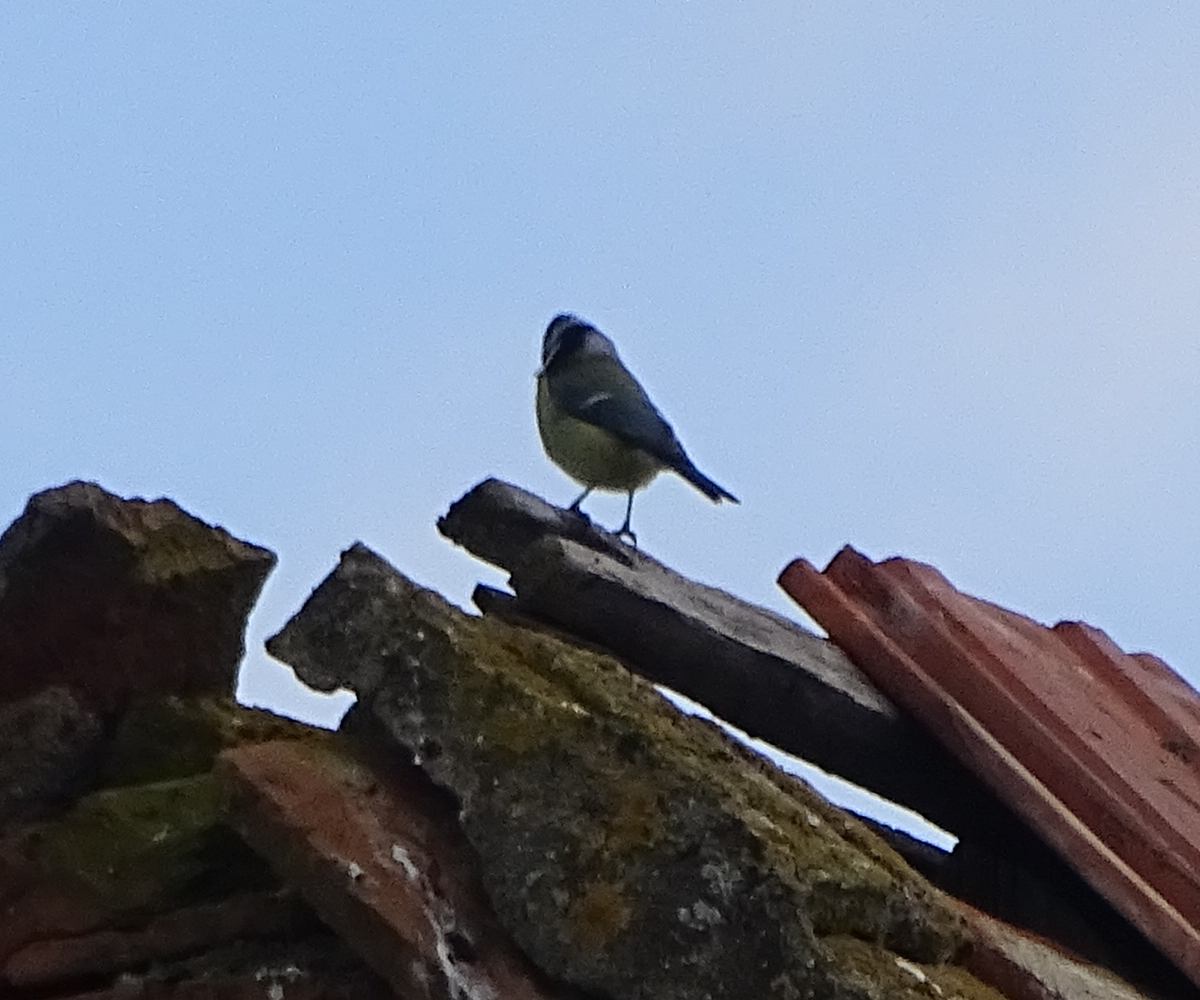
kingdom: Animalia
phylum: Chordata
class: Aves
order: Passeriformes
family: Paridae
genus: Cyanistes
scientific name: Cyanistes caeruleus
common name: Eurasian blue tit
